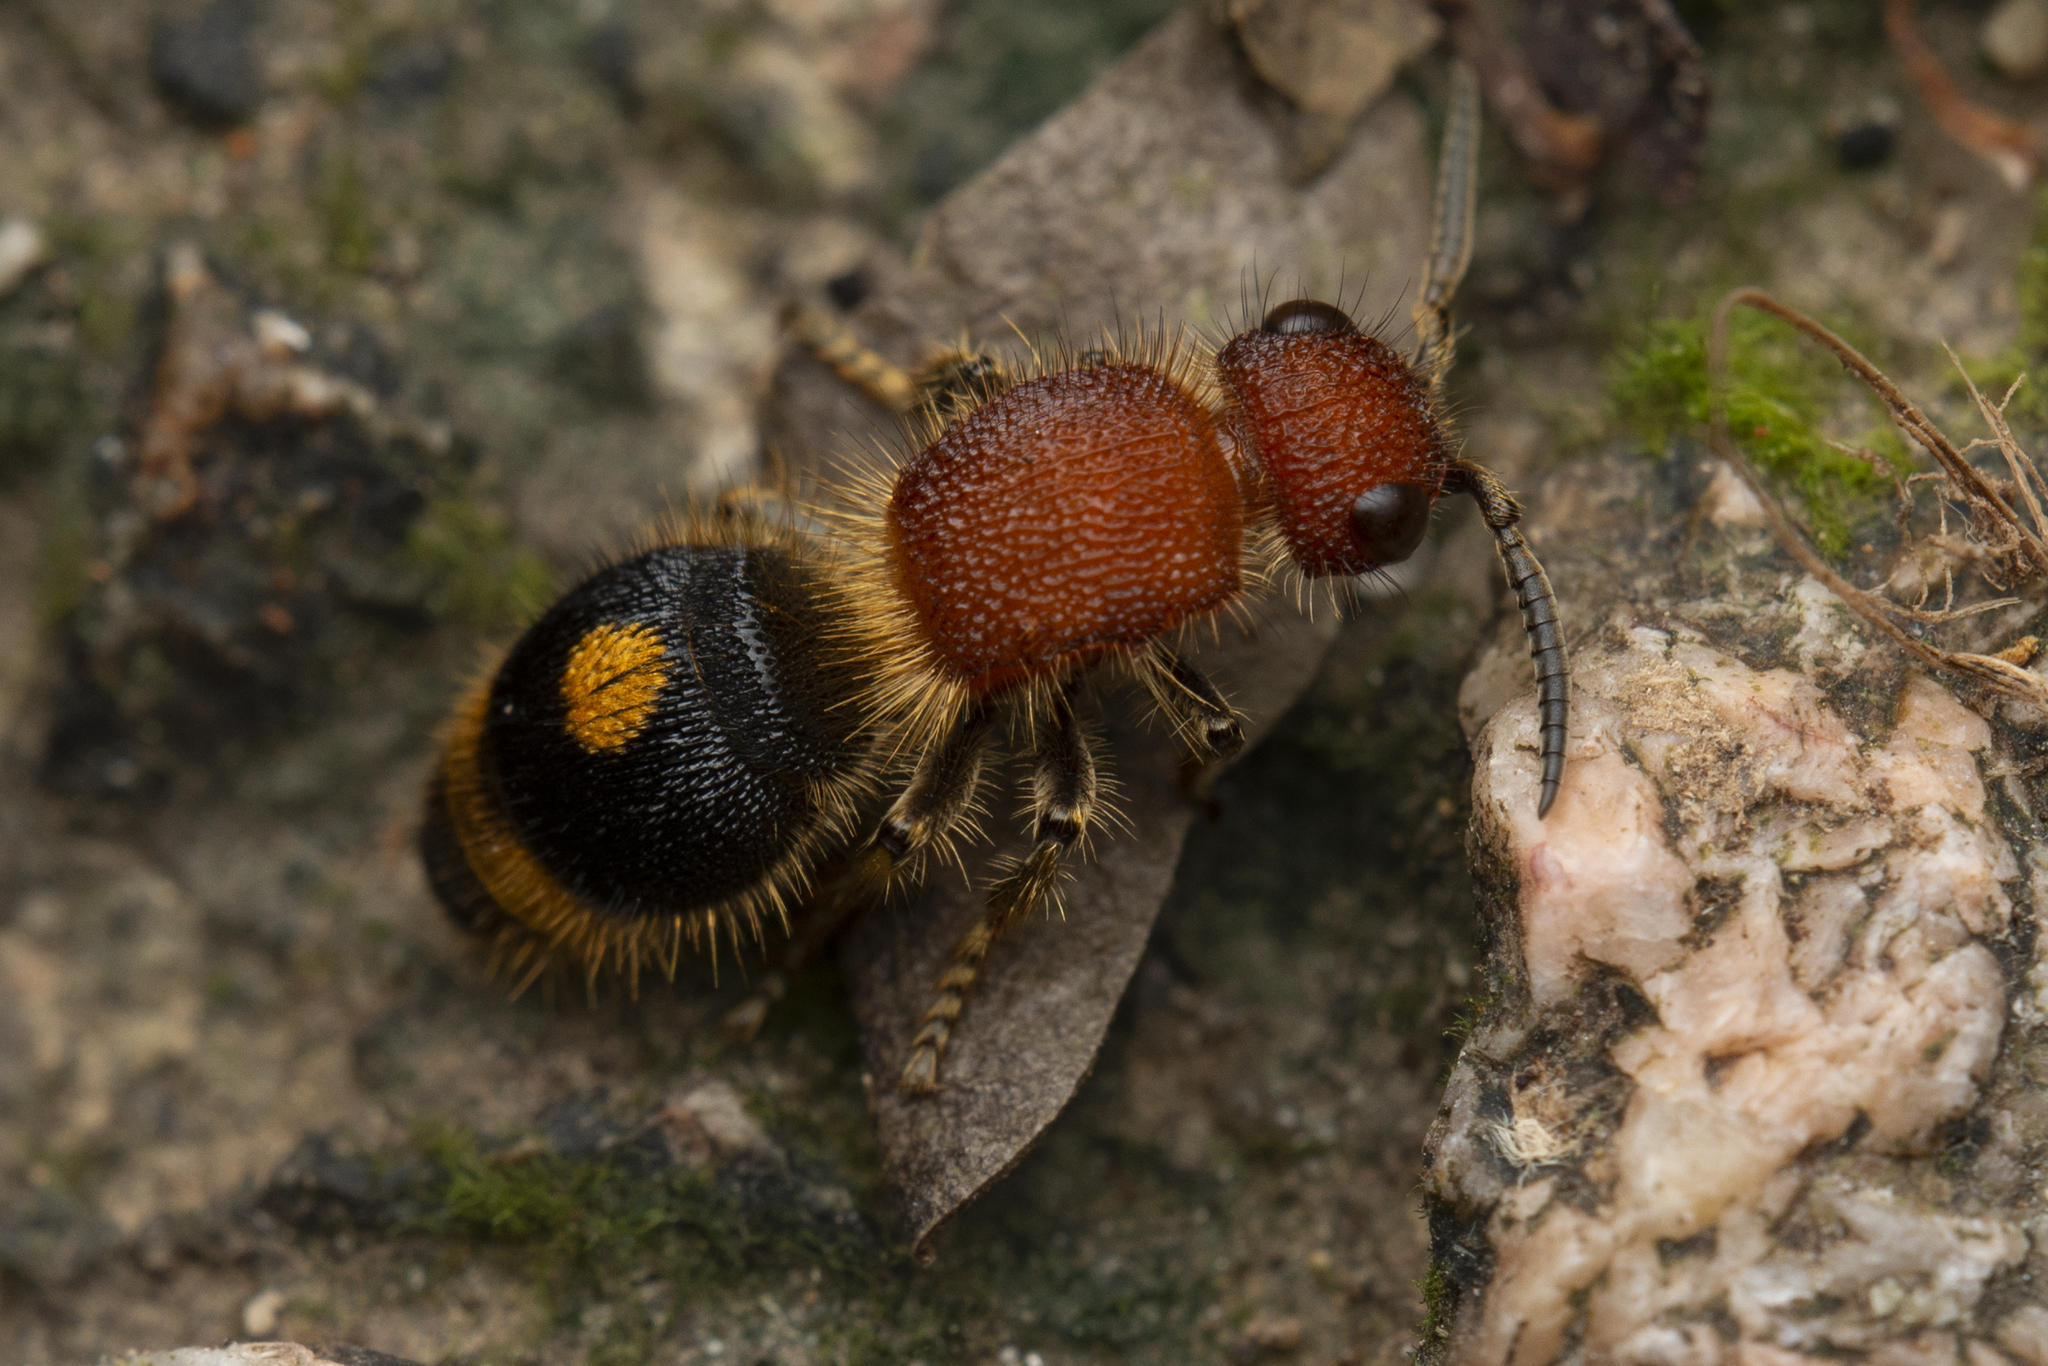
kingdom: Animalia
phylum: Arthropoda
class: Insecta
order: Hymenoptera
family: Mutillidae
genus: Odontomutilla
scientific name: Odontomutilla uranioides
